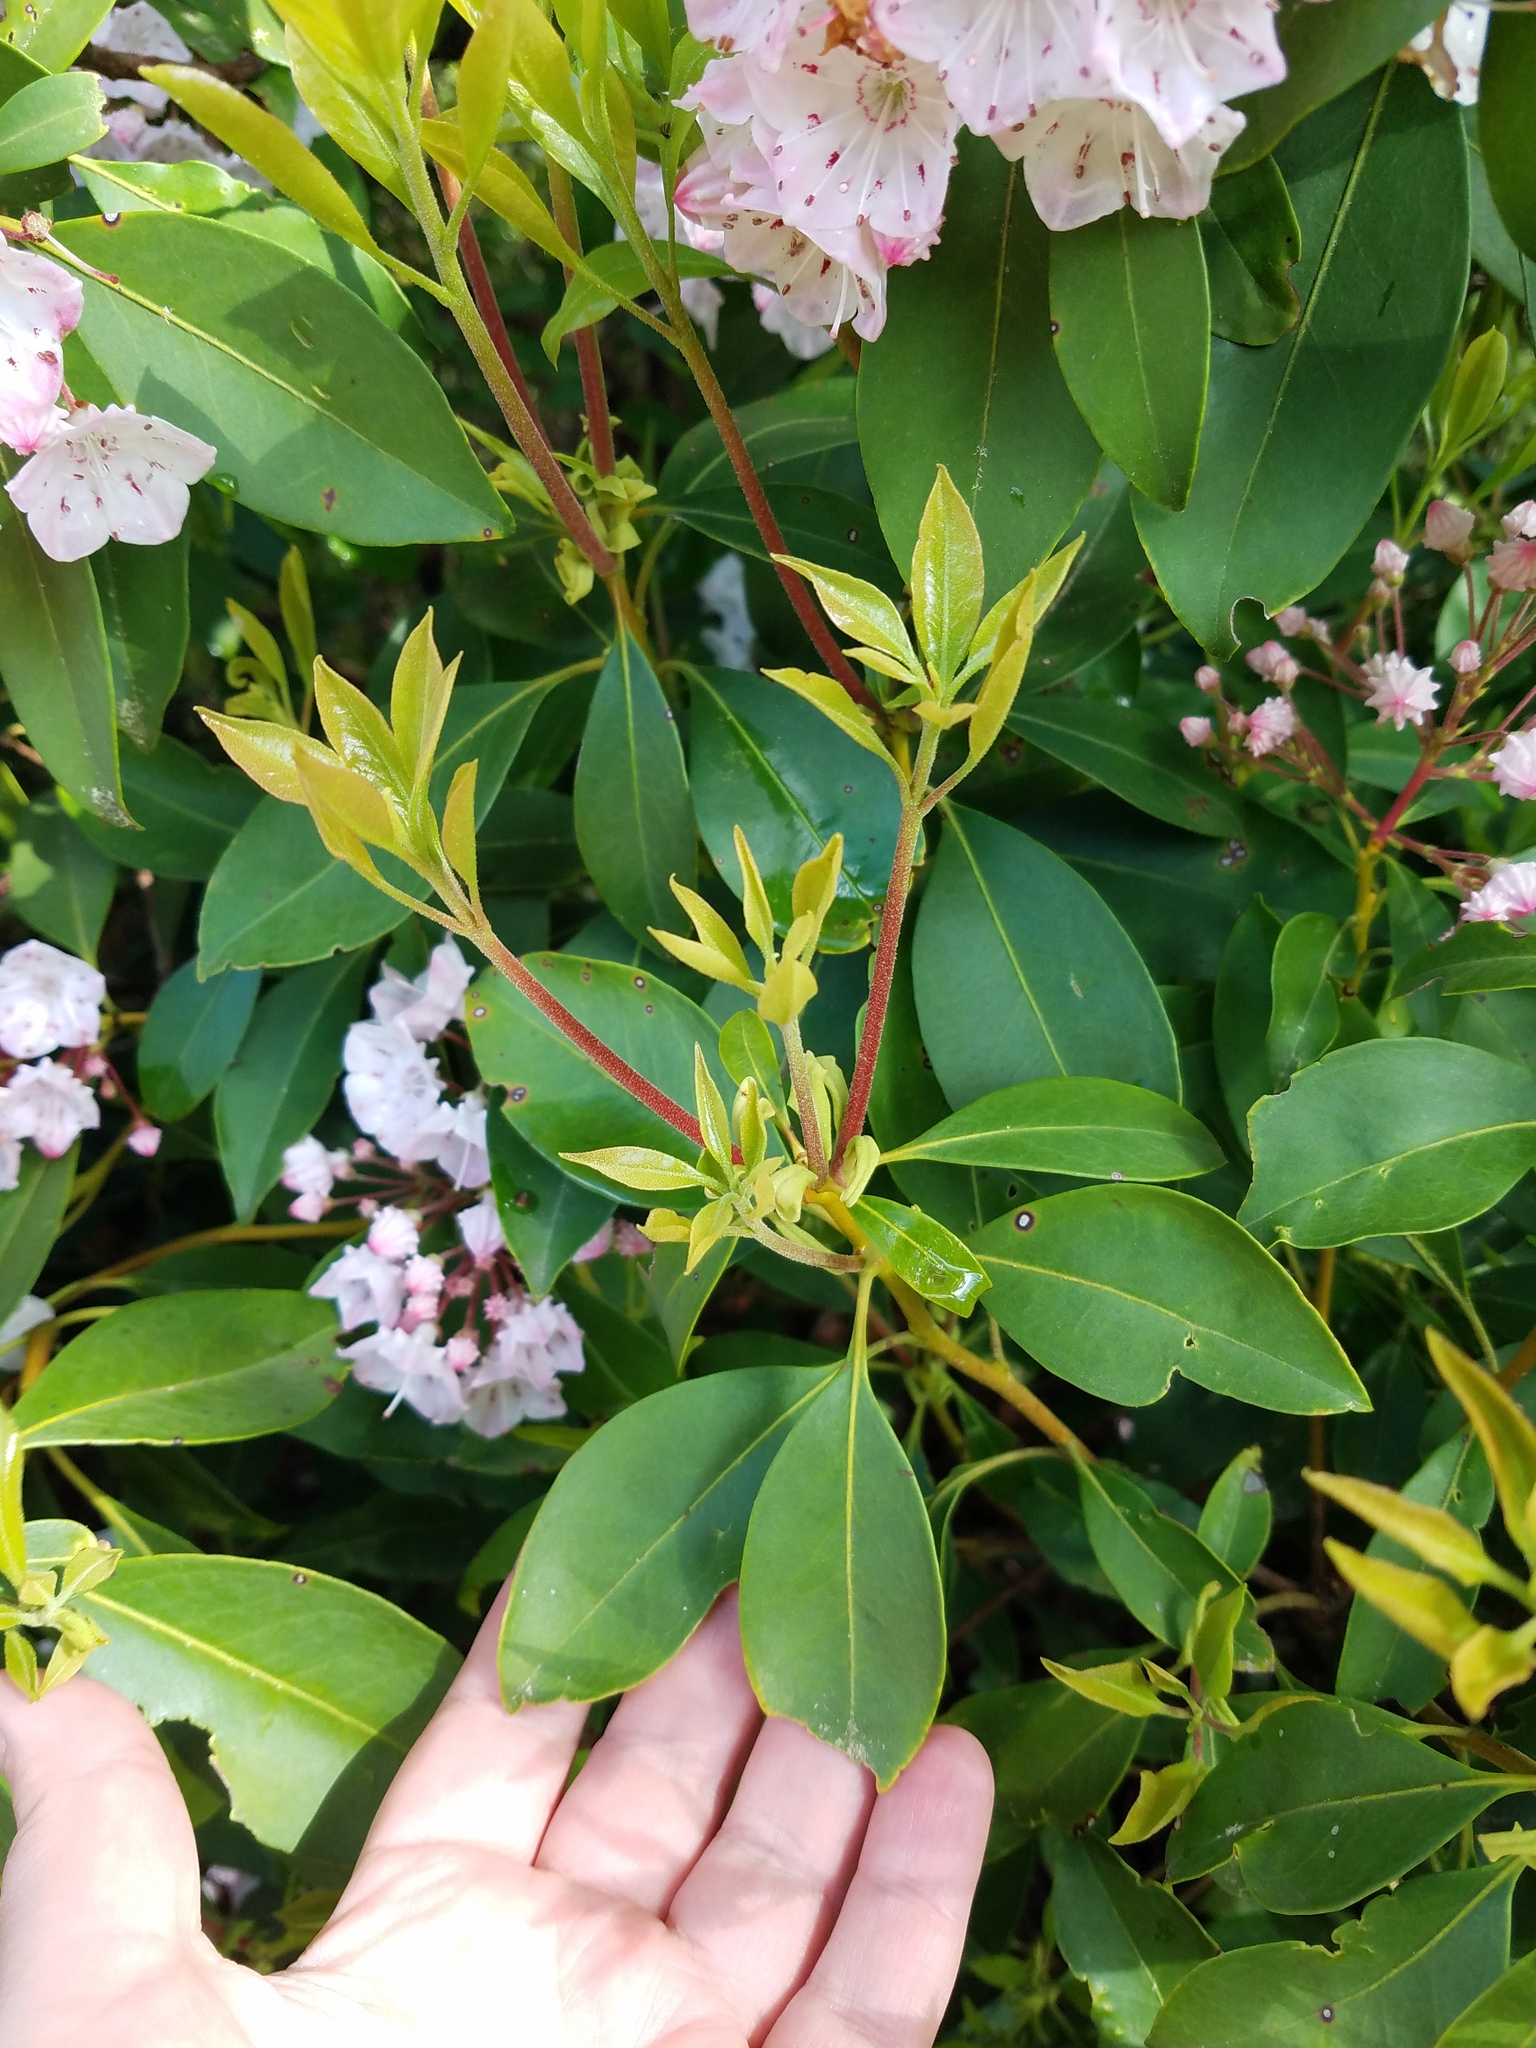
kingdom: Plantae
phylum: Tracheophyta
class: Magnoliopsida
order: Ericales
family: Ericaceae
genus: Kalmia
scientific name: Kalmia latifolia
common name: Mountain-laurel
